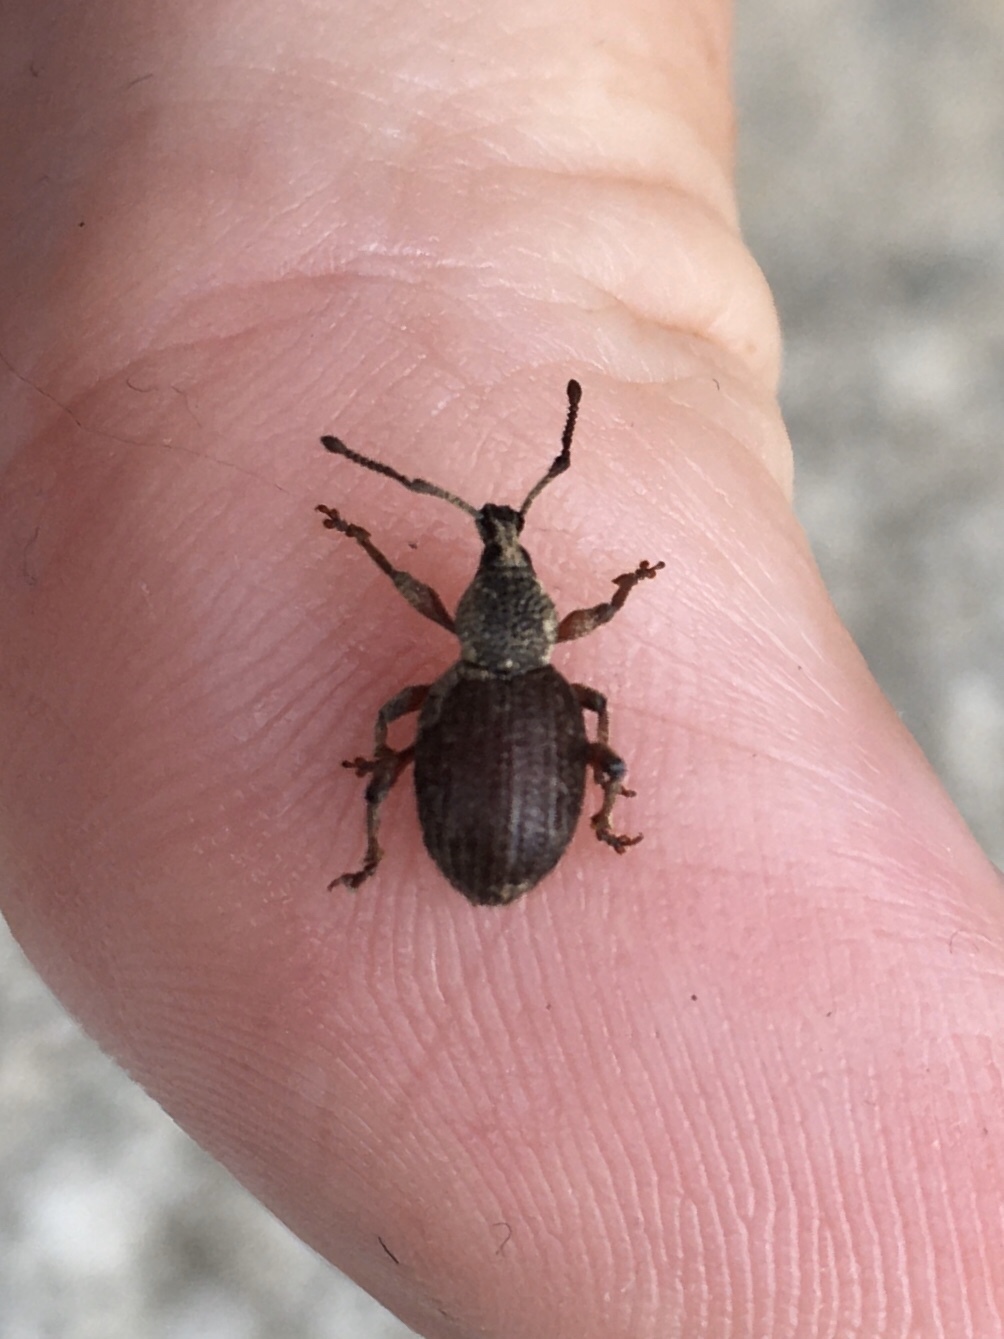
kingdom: Animalia
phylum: Arthropoda
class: Insecta
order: Coleoptera
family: Curculionidae
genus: Otiorhynchus
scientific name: Otiorhynchus singularis
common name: Clay-coloured weevil
